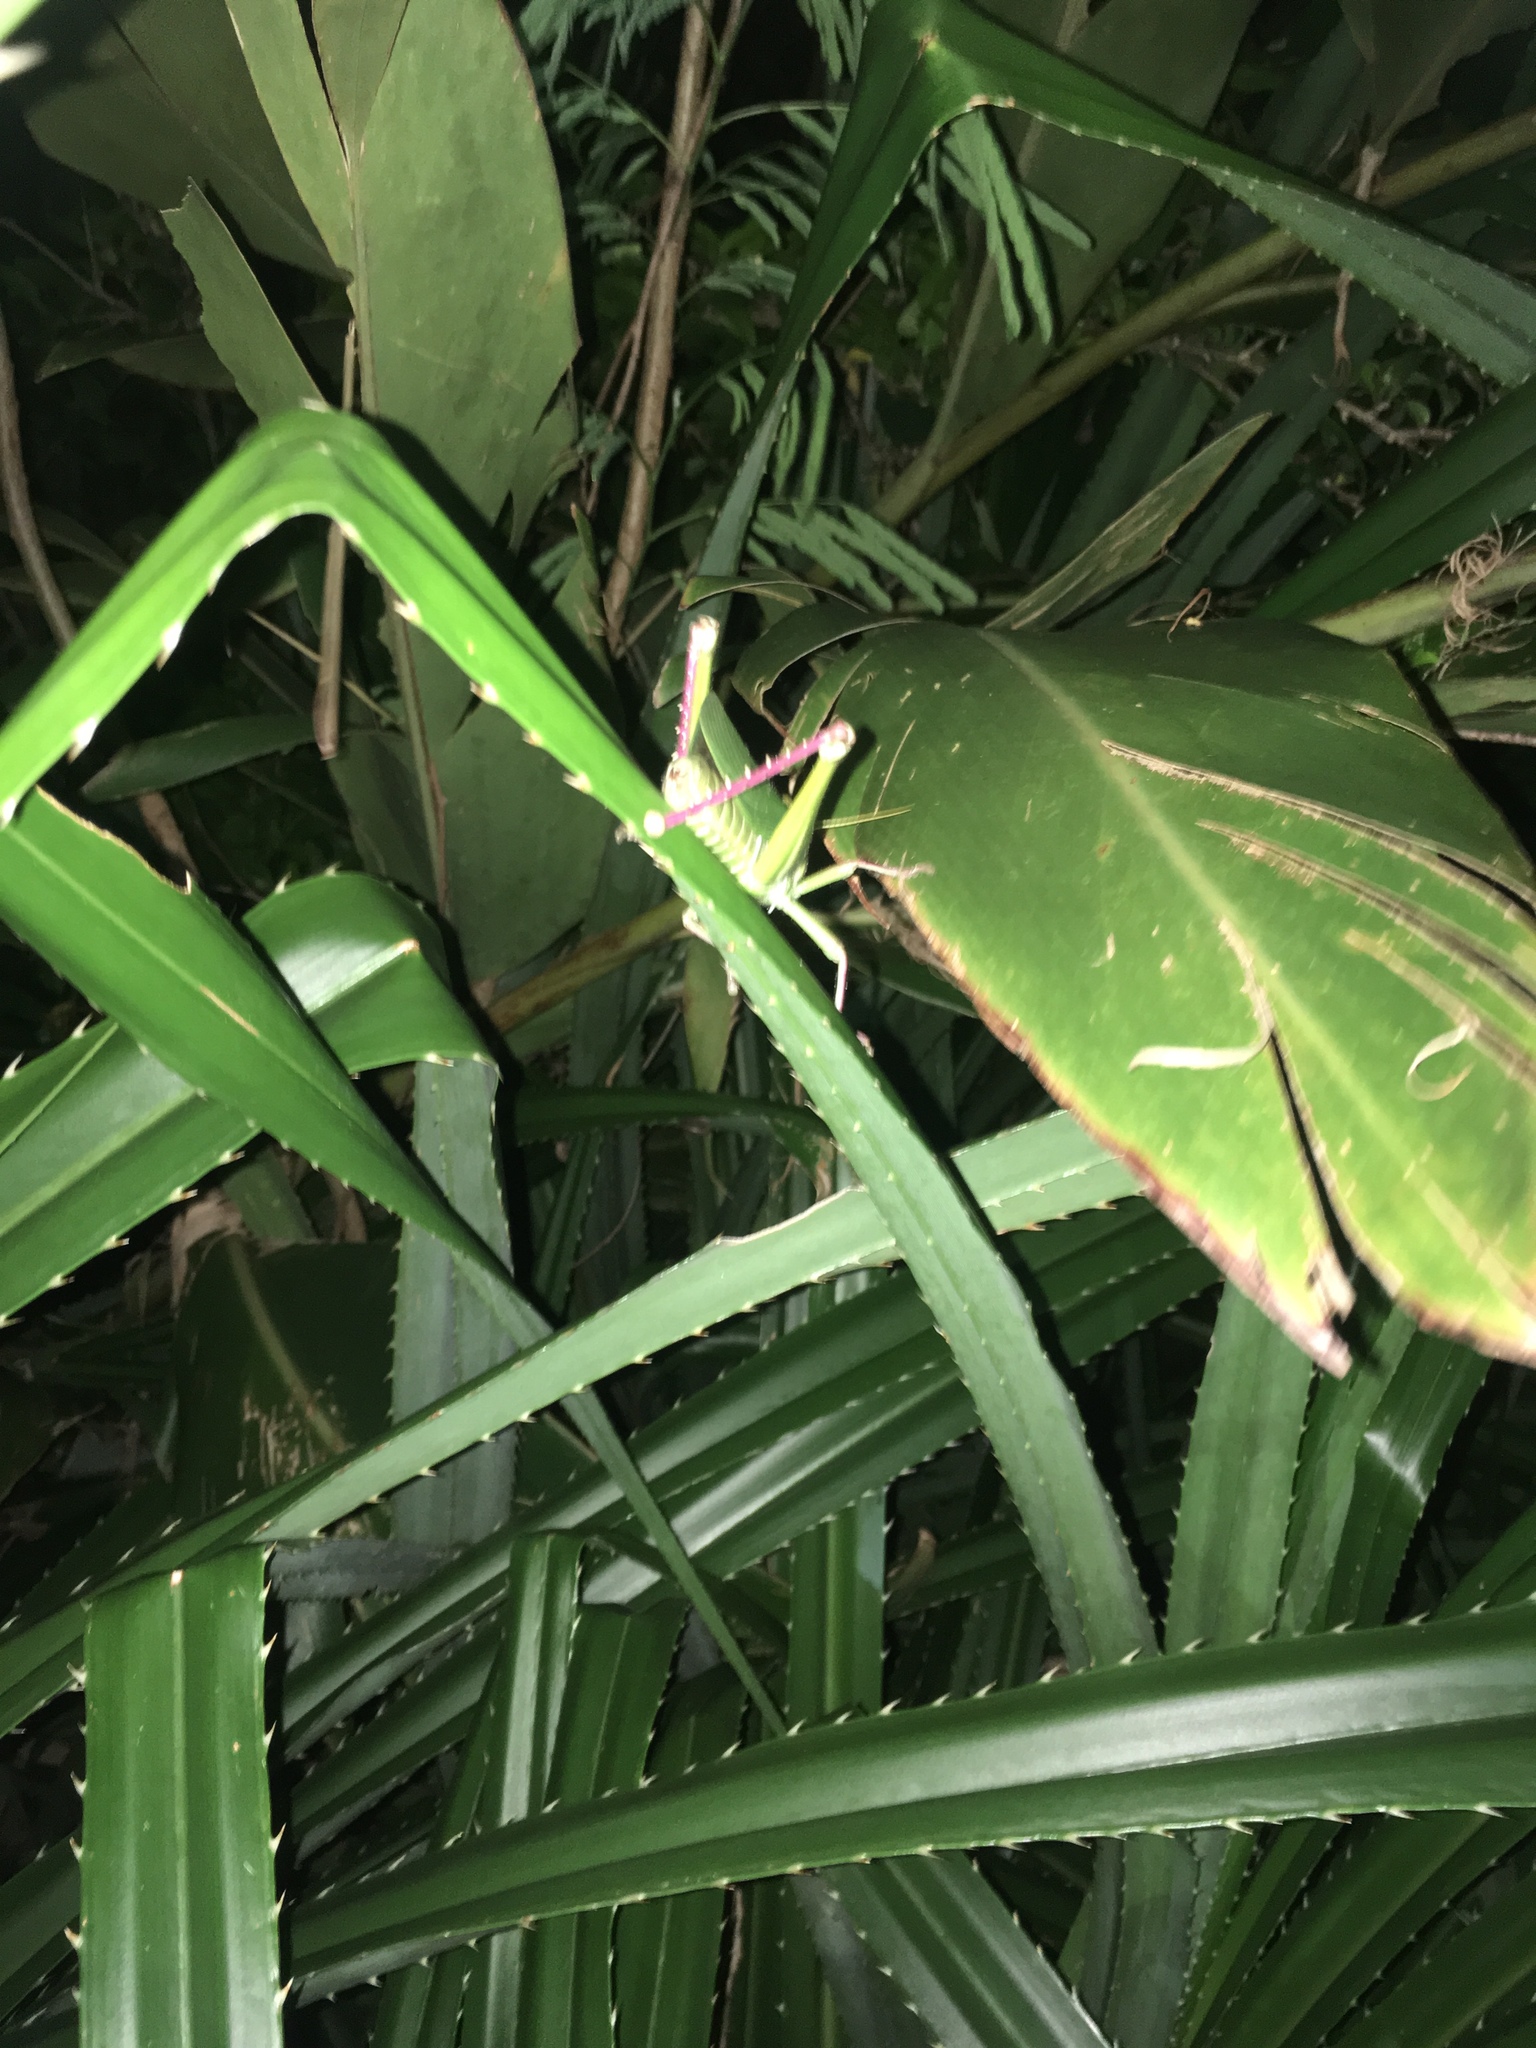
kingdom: Animalia
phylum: Arthropoda
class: Insecta
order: Orthoptera
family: Acrididae
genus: Chondracris
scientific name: Chondracris rosea
